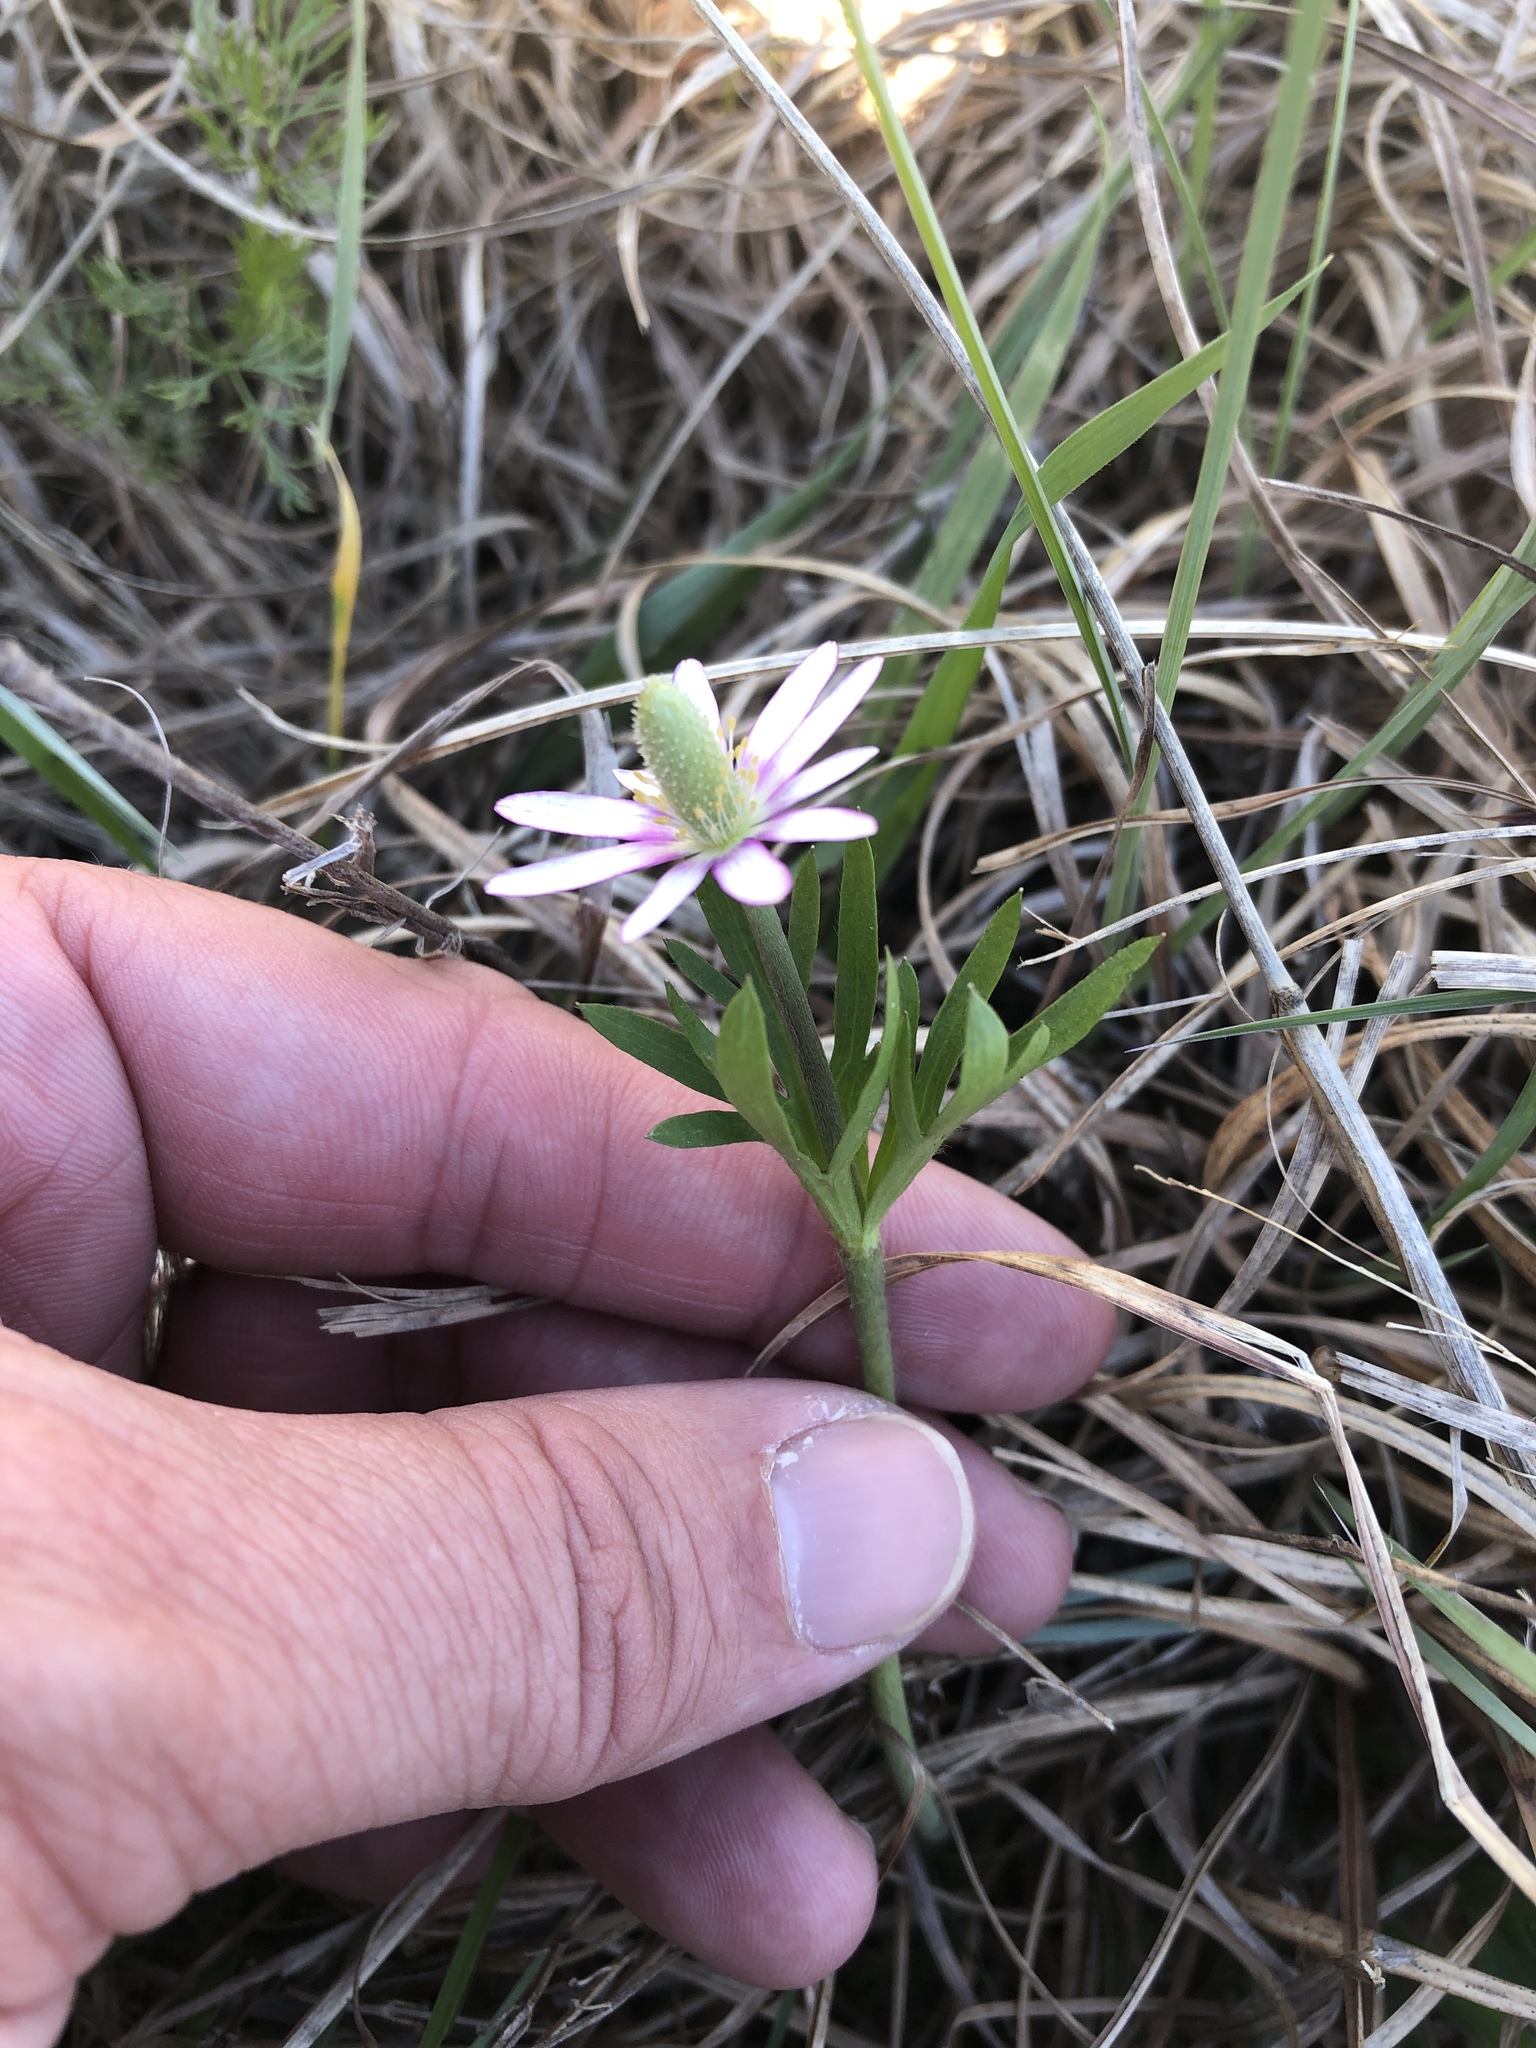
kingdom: Plantae
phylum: Tracheophyta
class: Magnoliopsida
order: Ranunculales
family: Ranunculaceae
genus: Anemone
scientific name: Anemone berlandieri
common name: Ten-petal anemone
